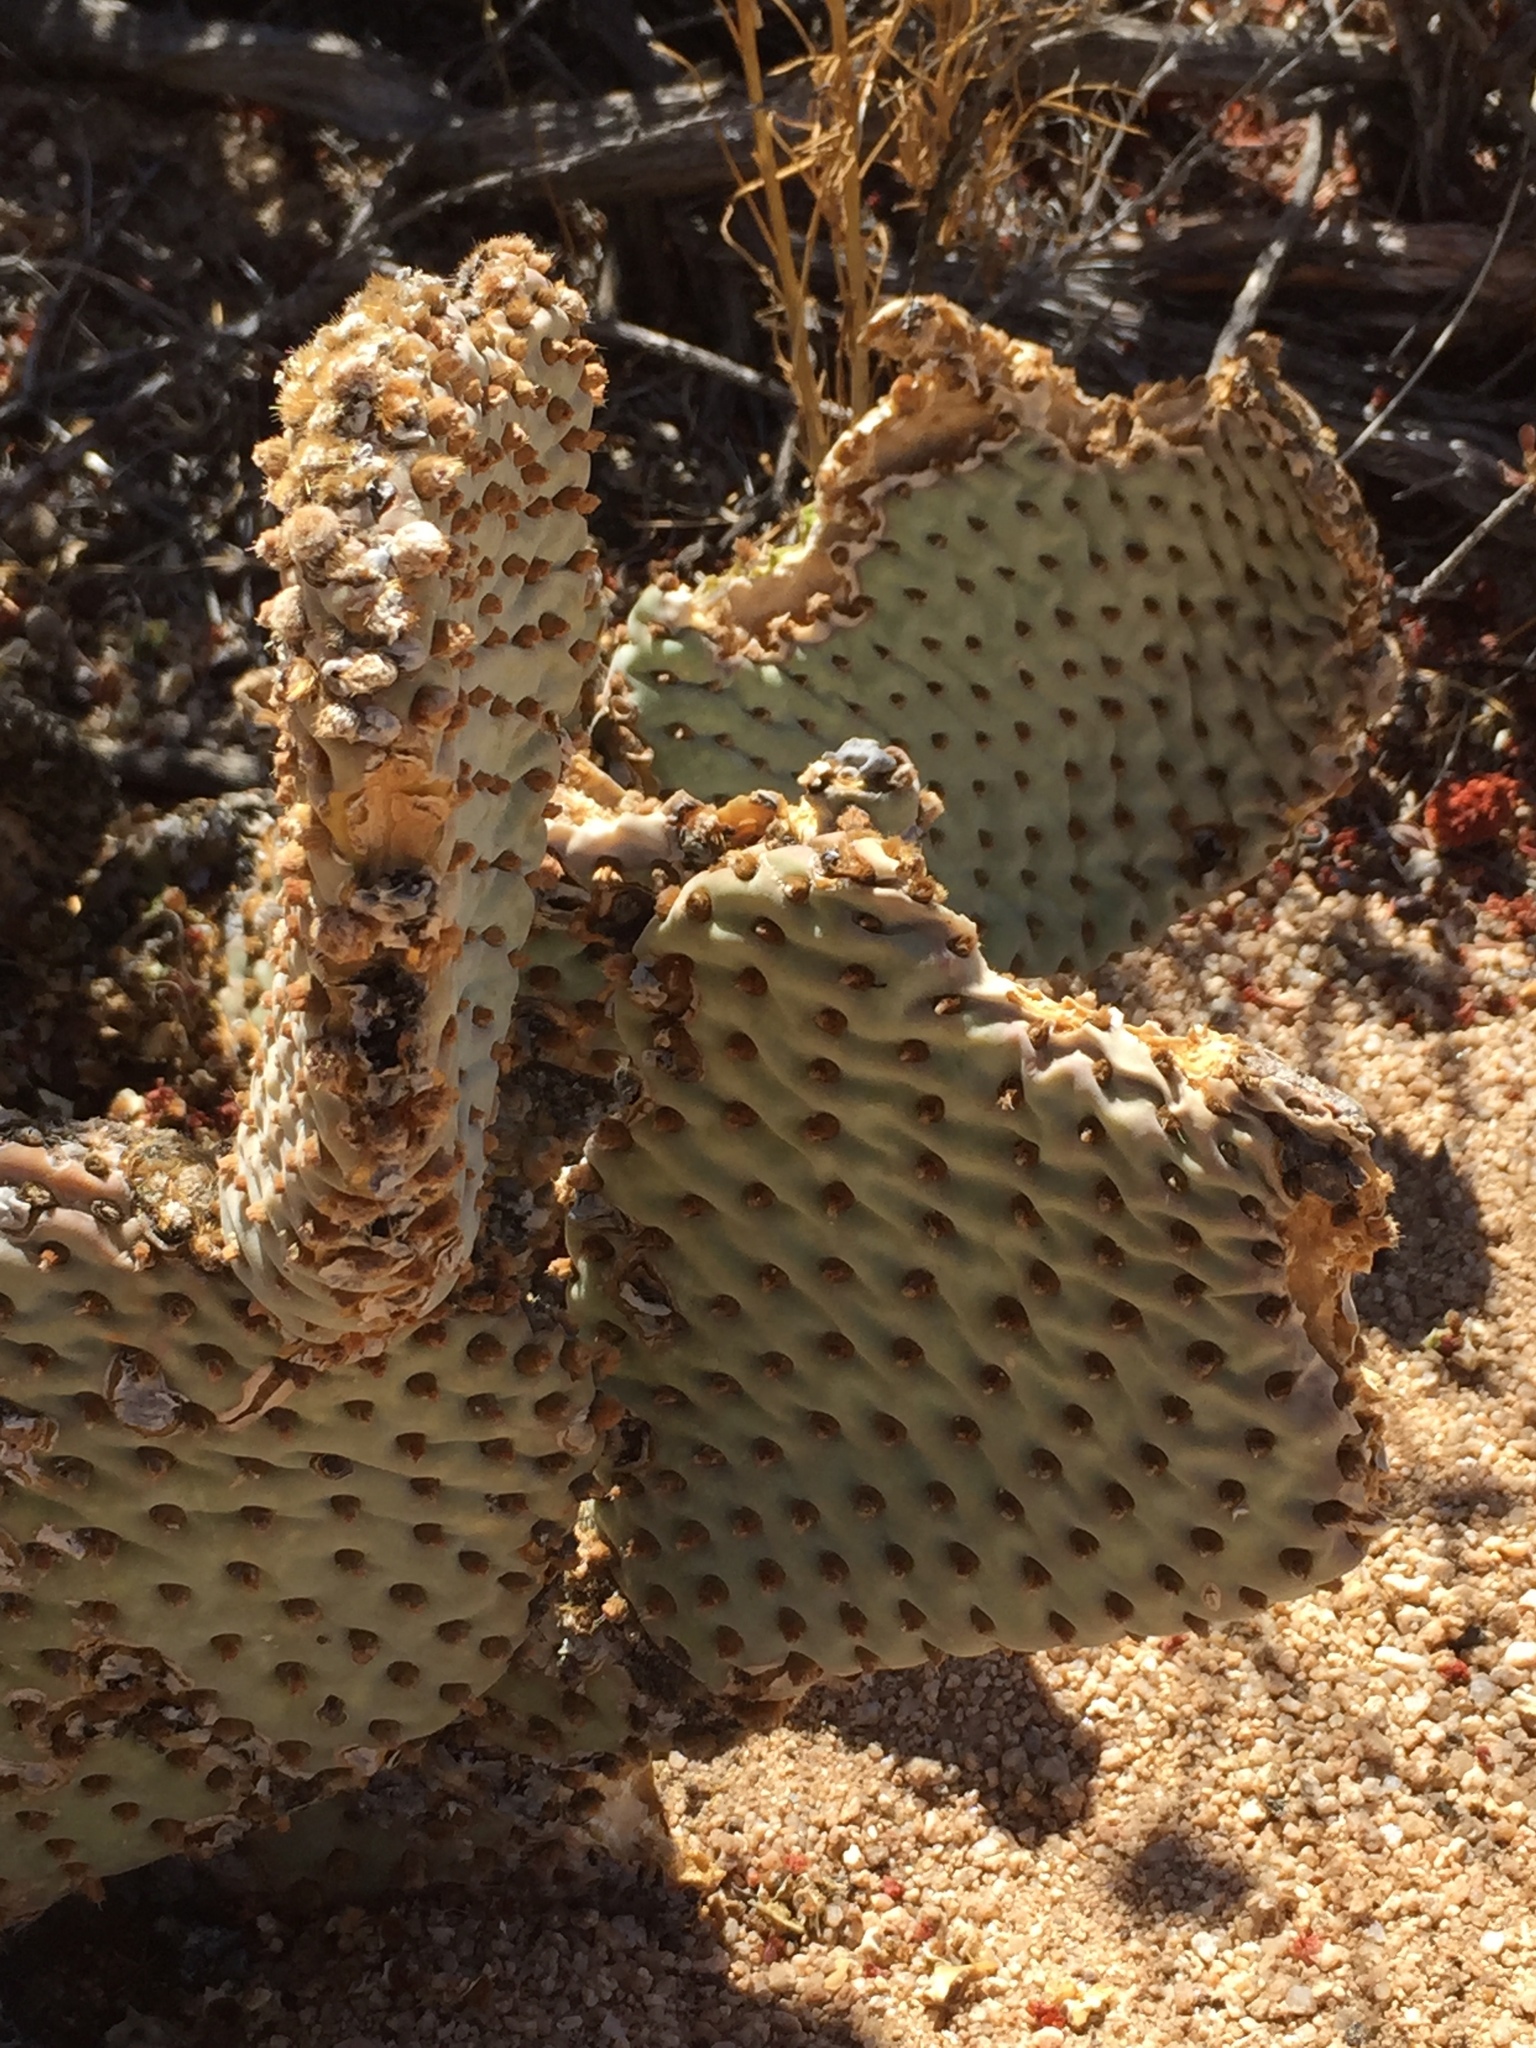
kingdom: Plantae
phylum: Tracheophyta
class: Magnoliopsida
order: Caryophyllales
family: Cactaceae
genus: Opuntia
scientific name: Opuntia basilaris
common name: Beavertail prickly-pear
